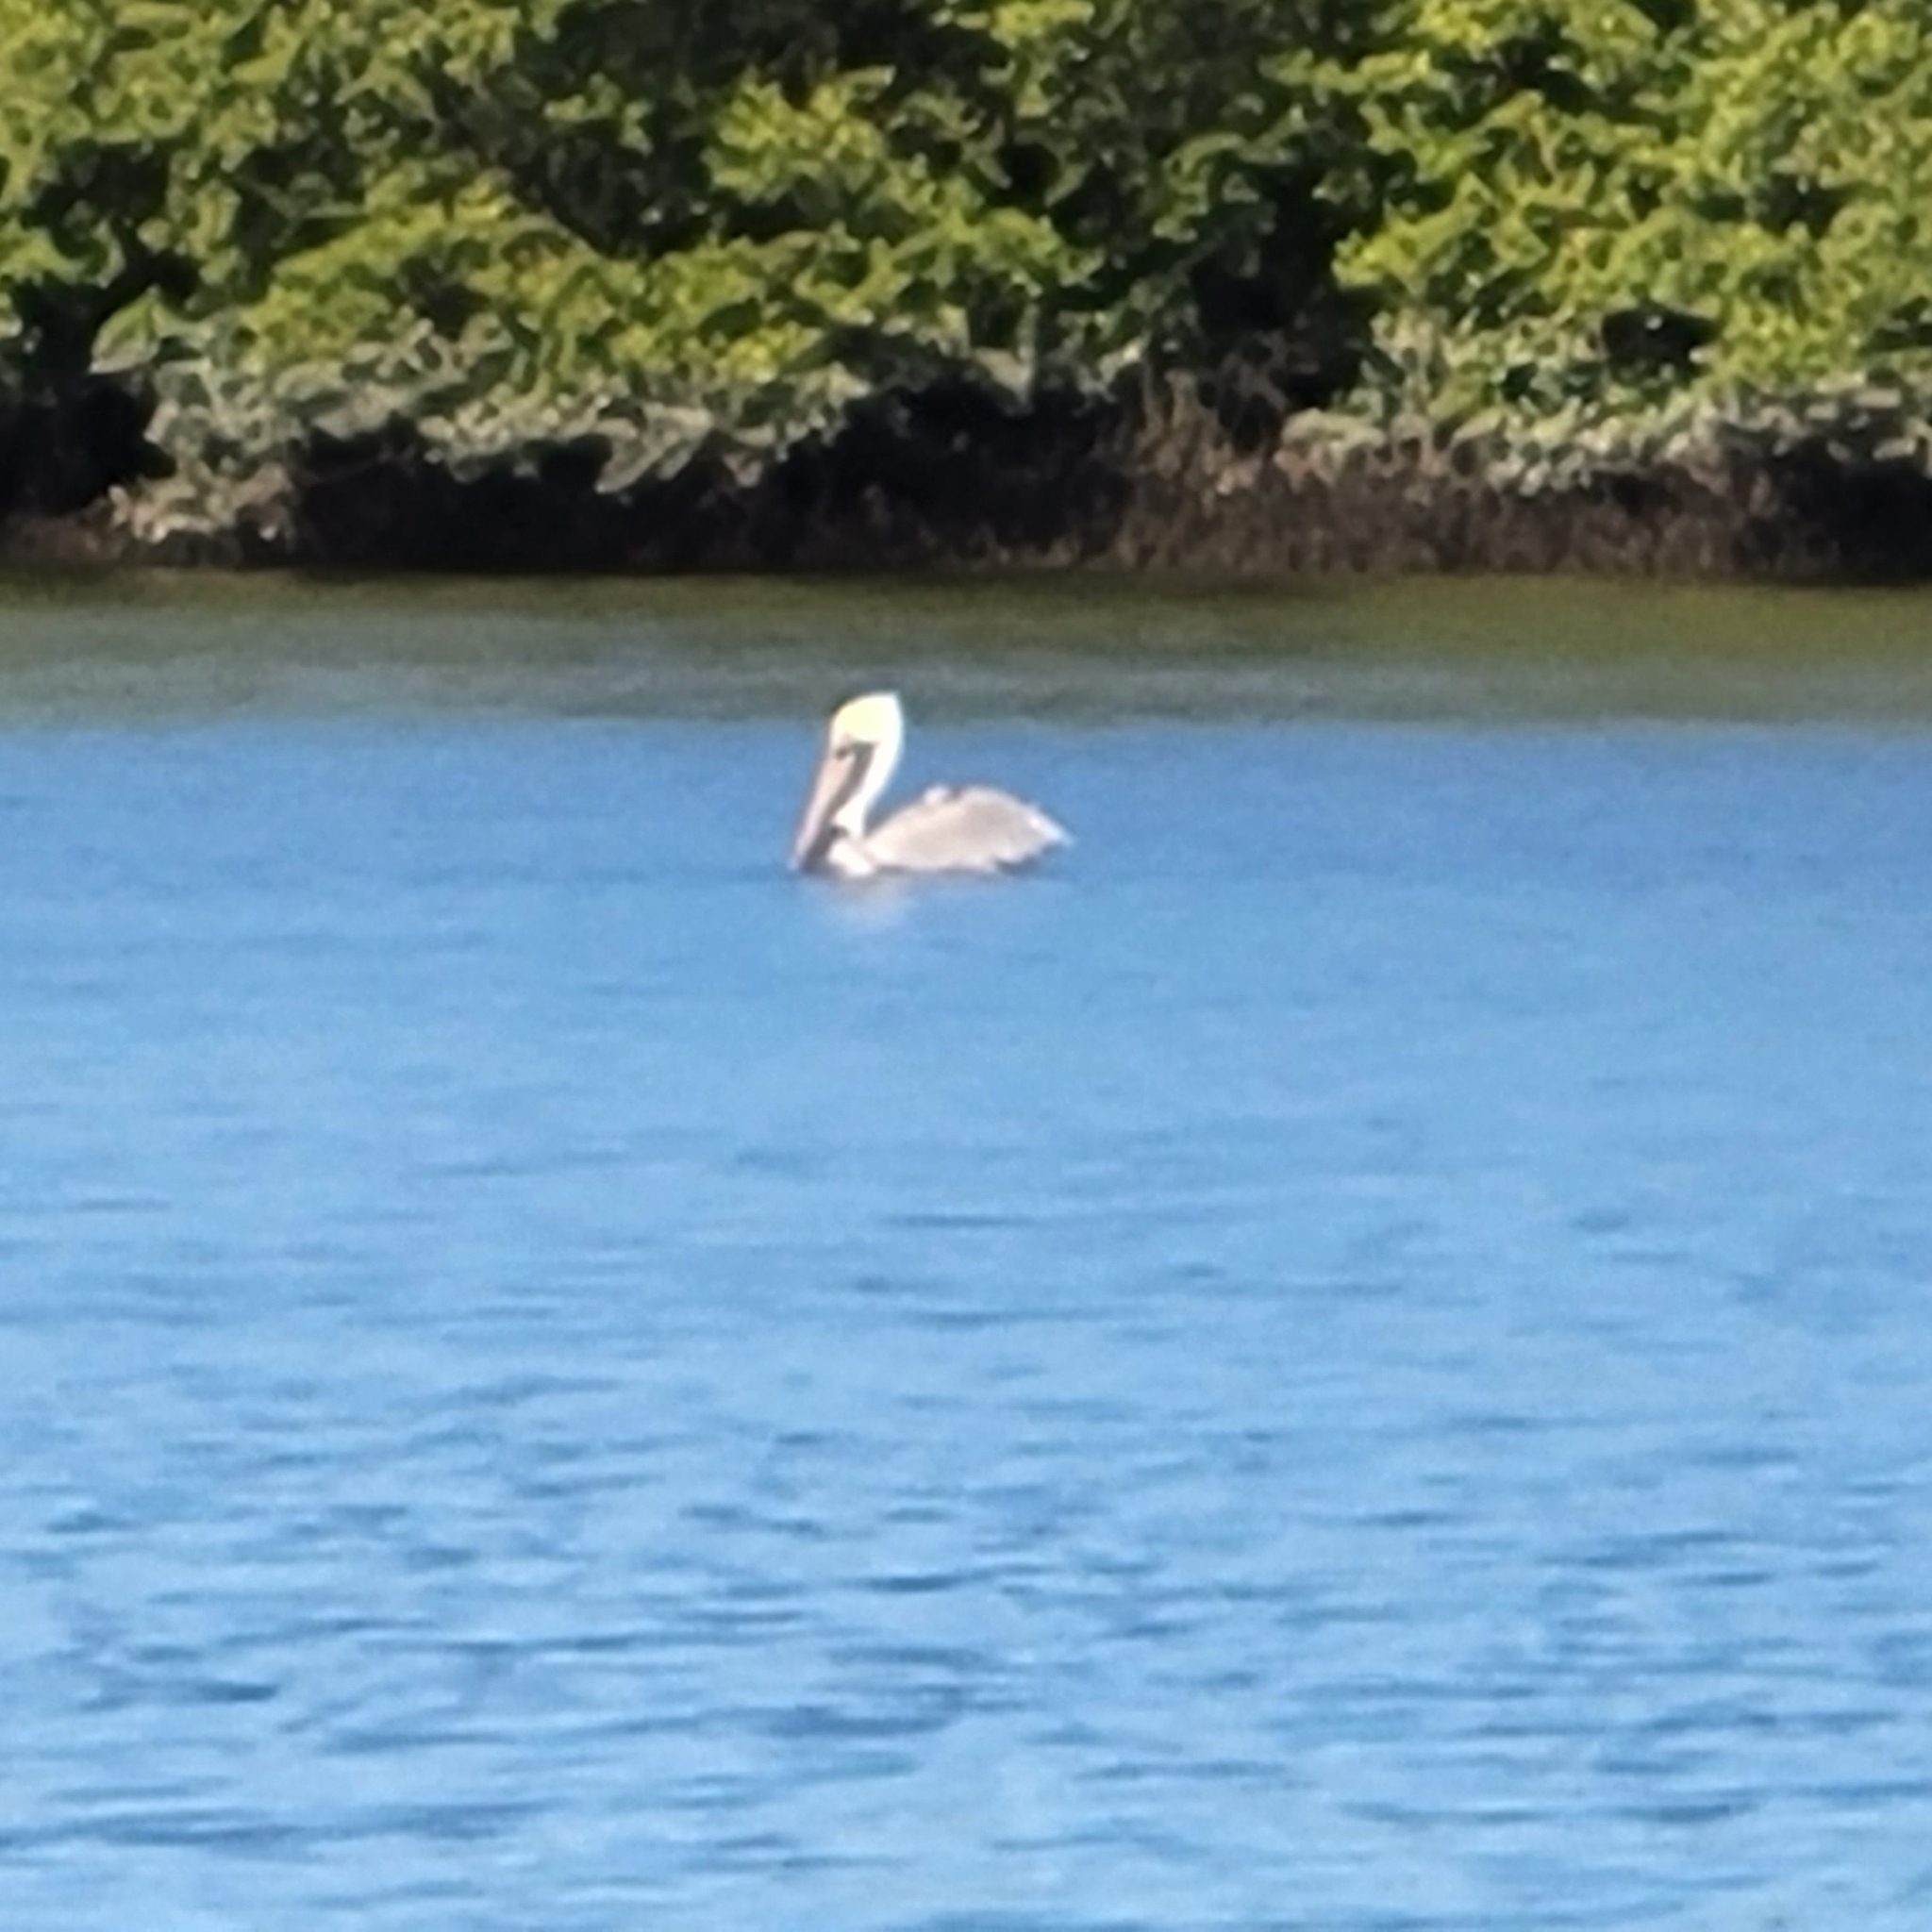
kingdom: Animalia
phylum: Chordata
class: Aves
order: Pelecaniformes
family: Pelecanidae
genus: Pelecanus
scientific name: Pelecanus occidentalis
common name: Brown pelican
